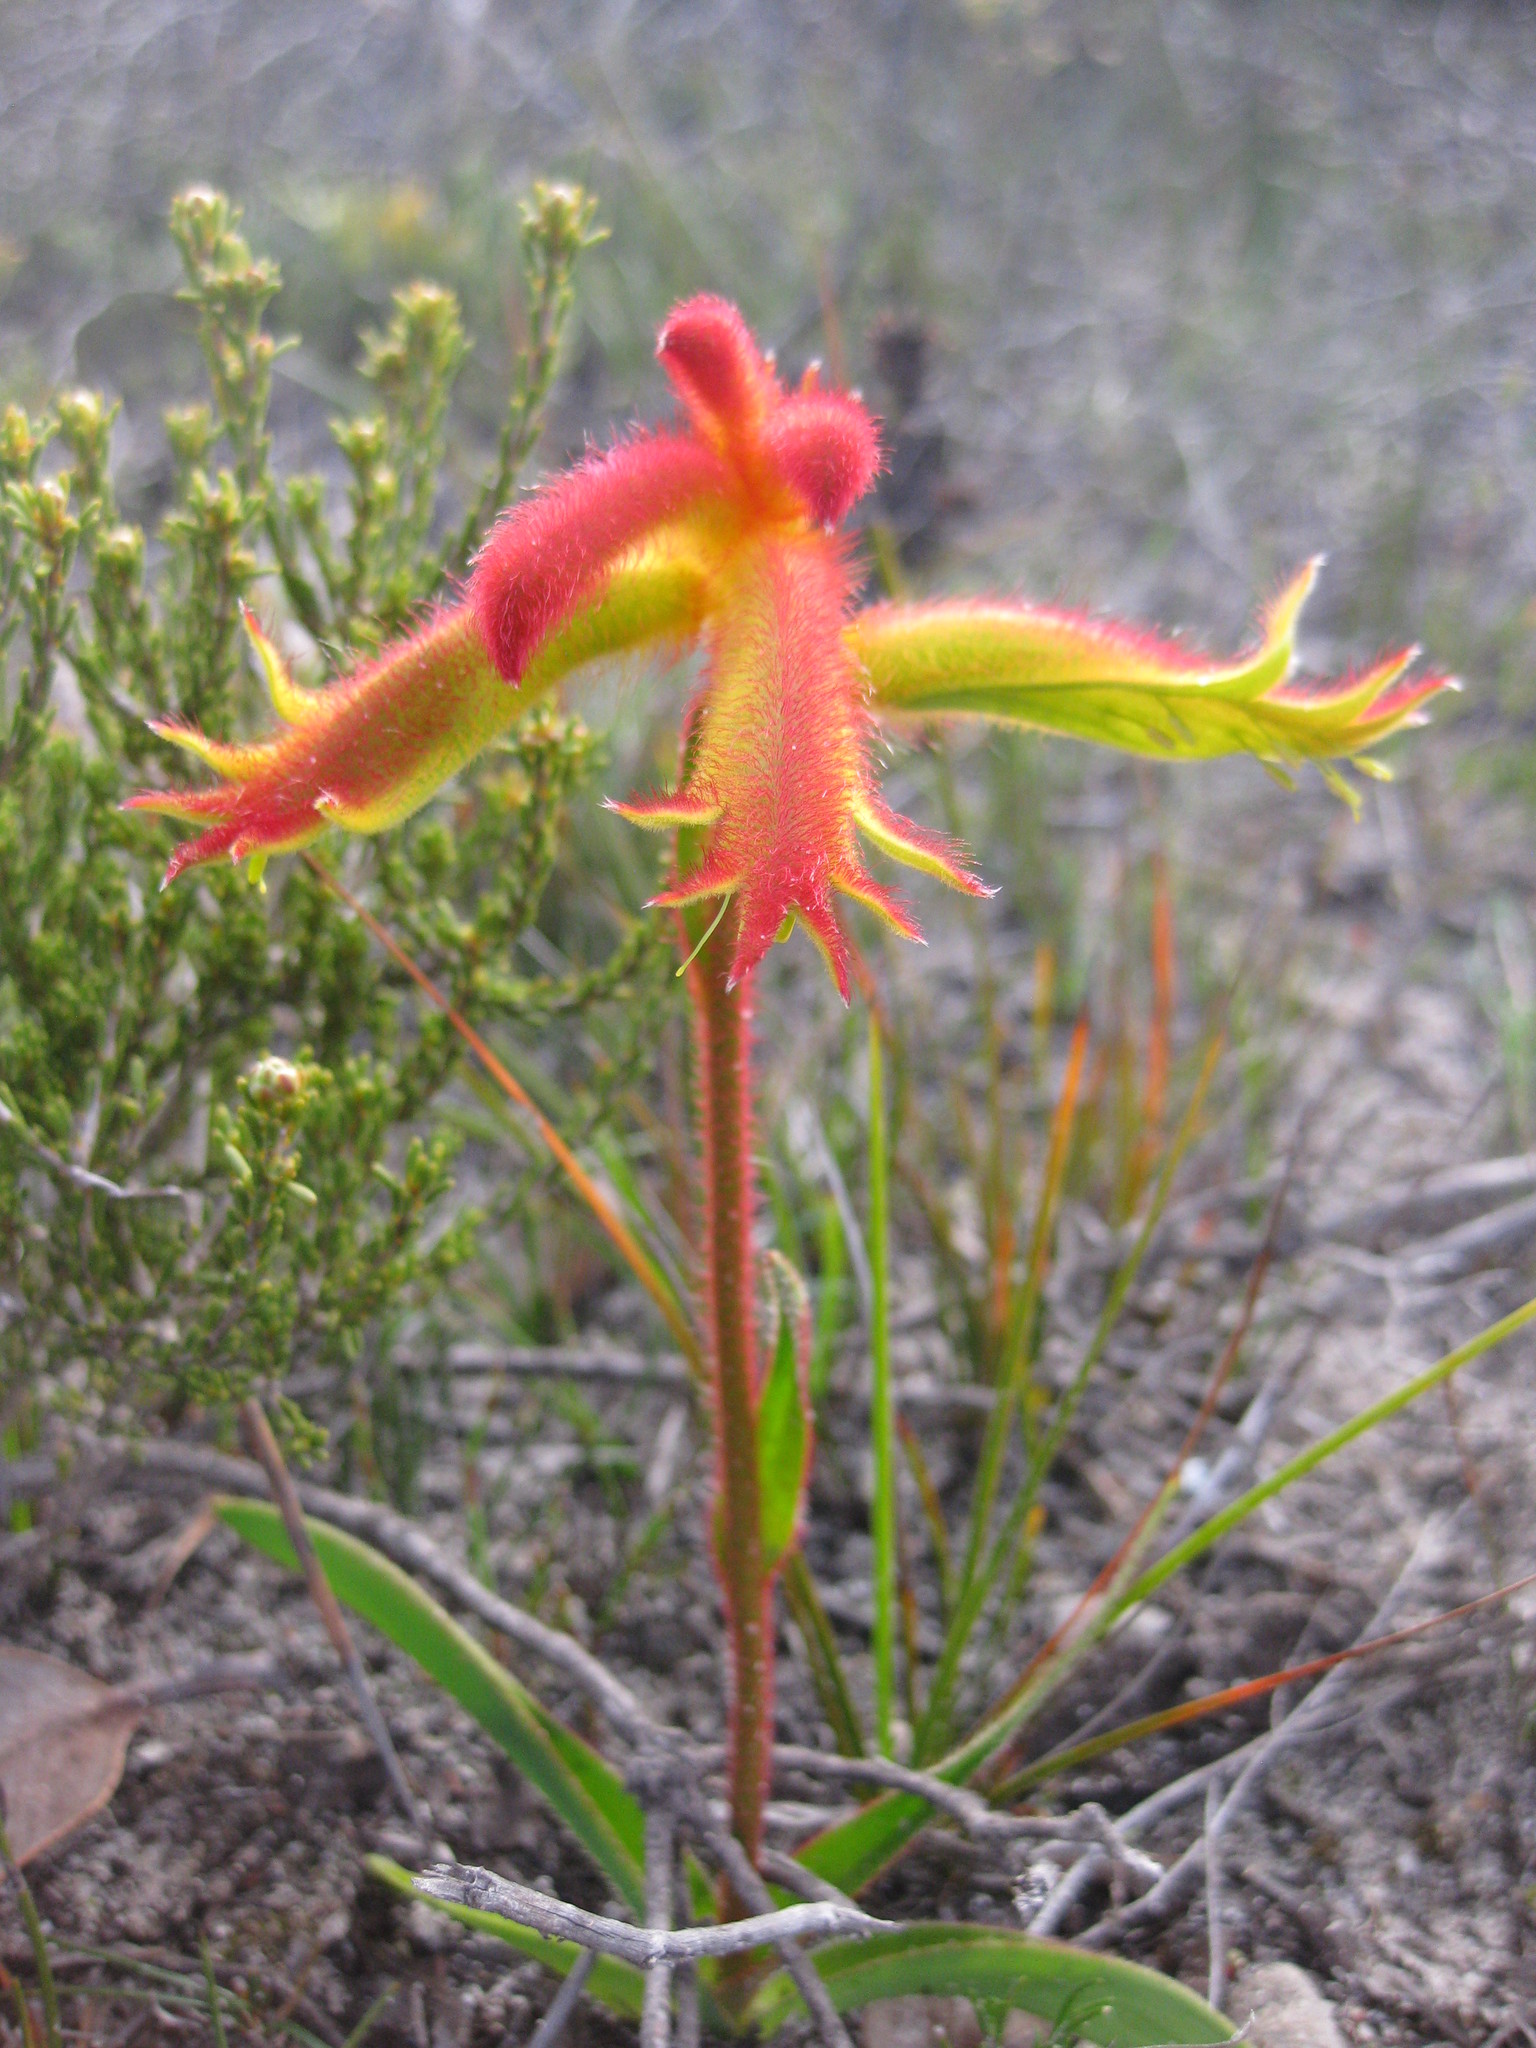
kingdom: Plantae
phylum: Tracheophyta
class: Liliopsida
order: Commelinales
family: Haemodoraceae
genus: Anigozanthos
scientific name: Anigozanthos humilis
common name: Cat's-paw
